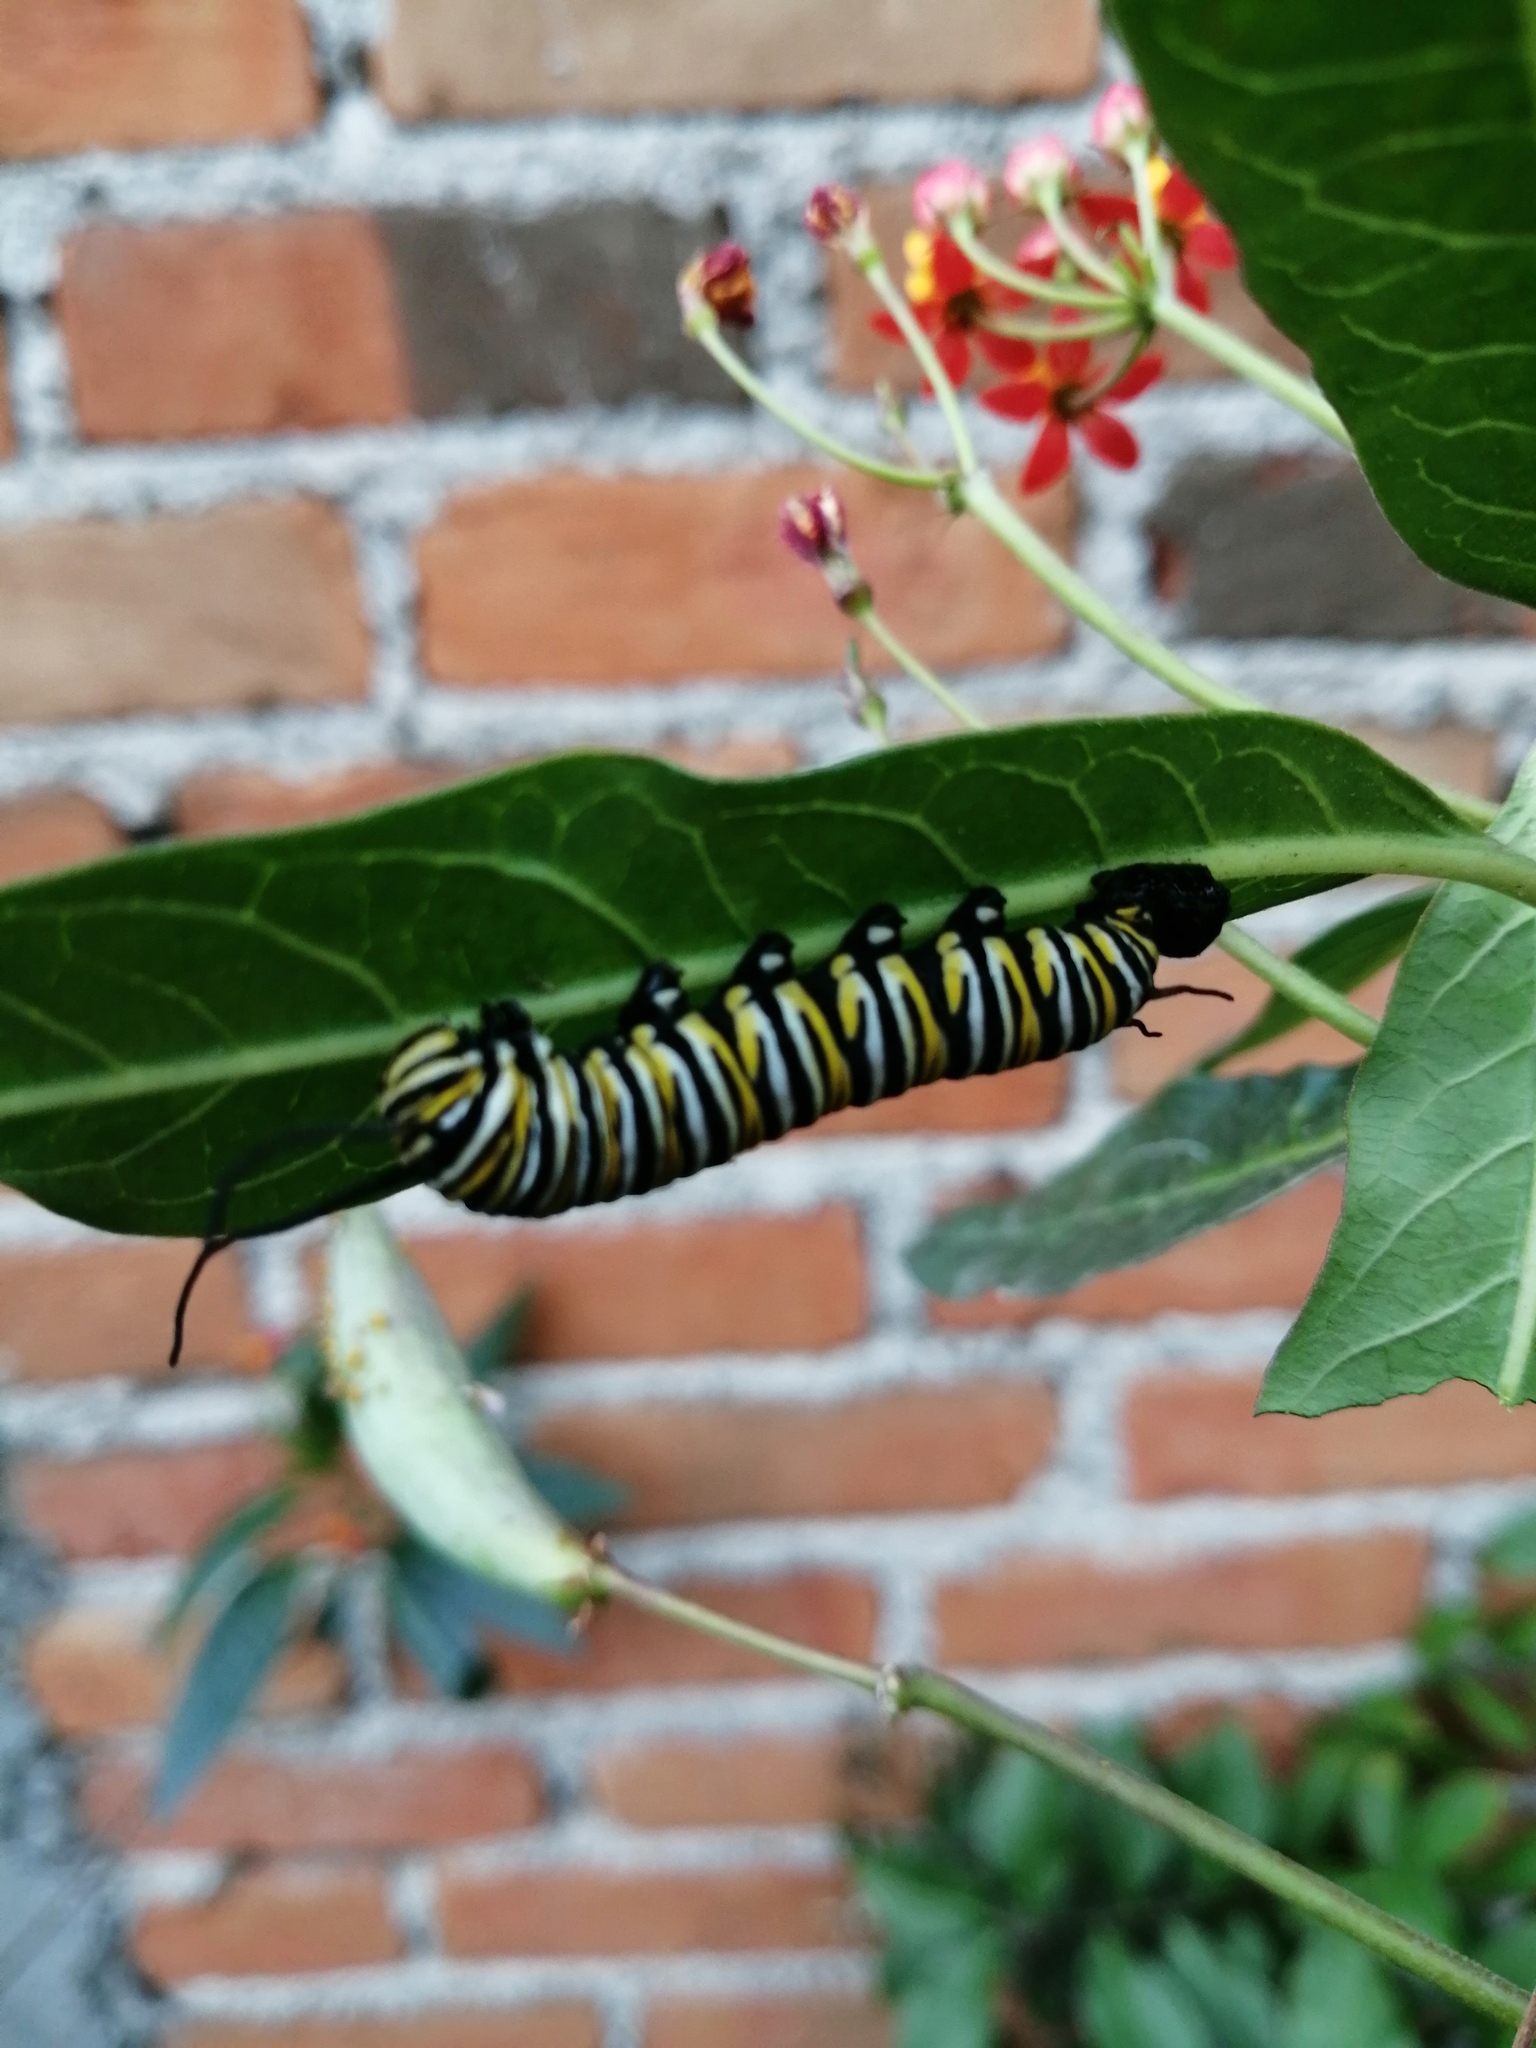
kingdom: Animalia
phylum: Arthropoda
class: Insecta
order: Lepidoptera
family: Nymphalidae
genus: Danaus
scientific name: Danaus plexippus
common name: Monarch
